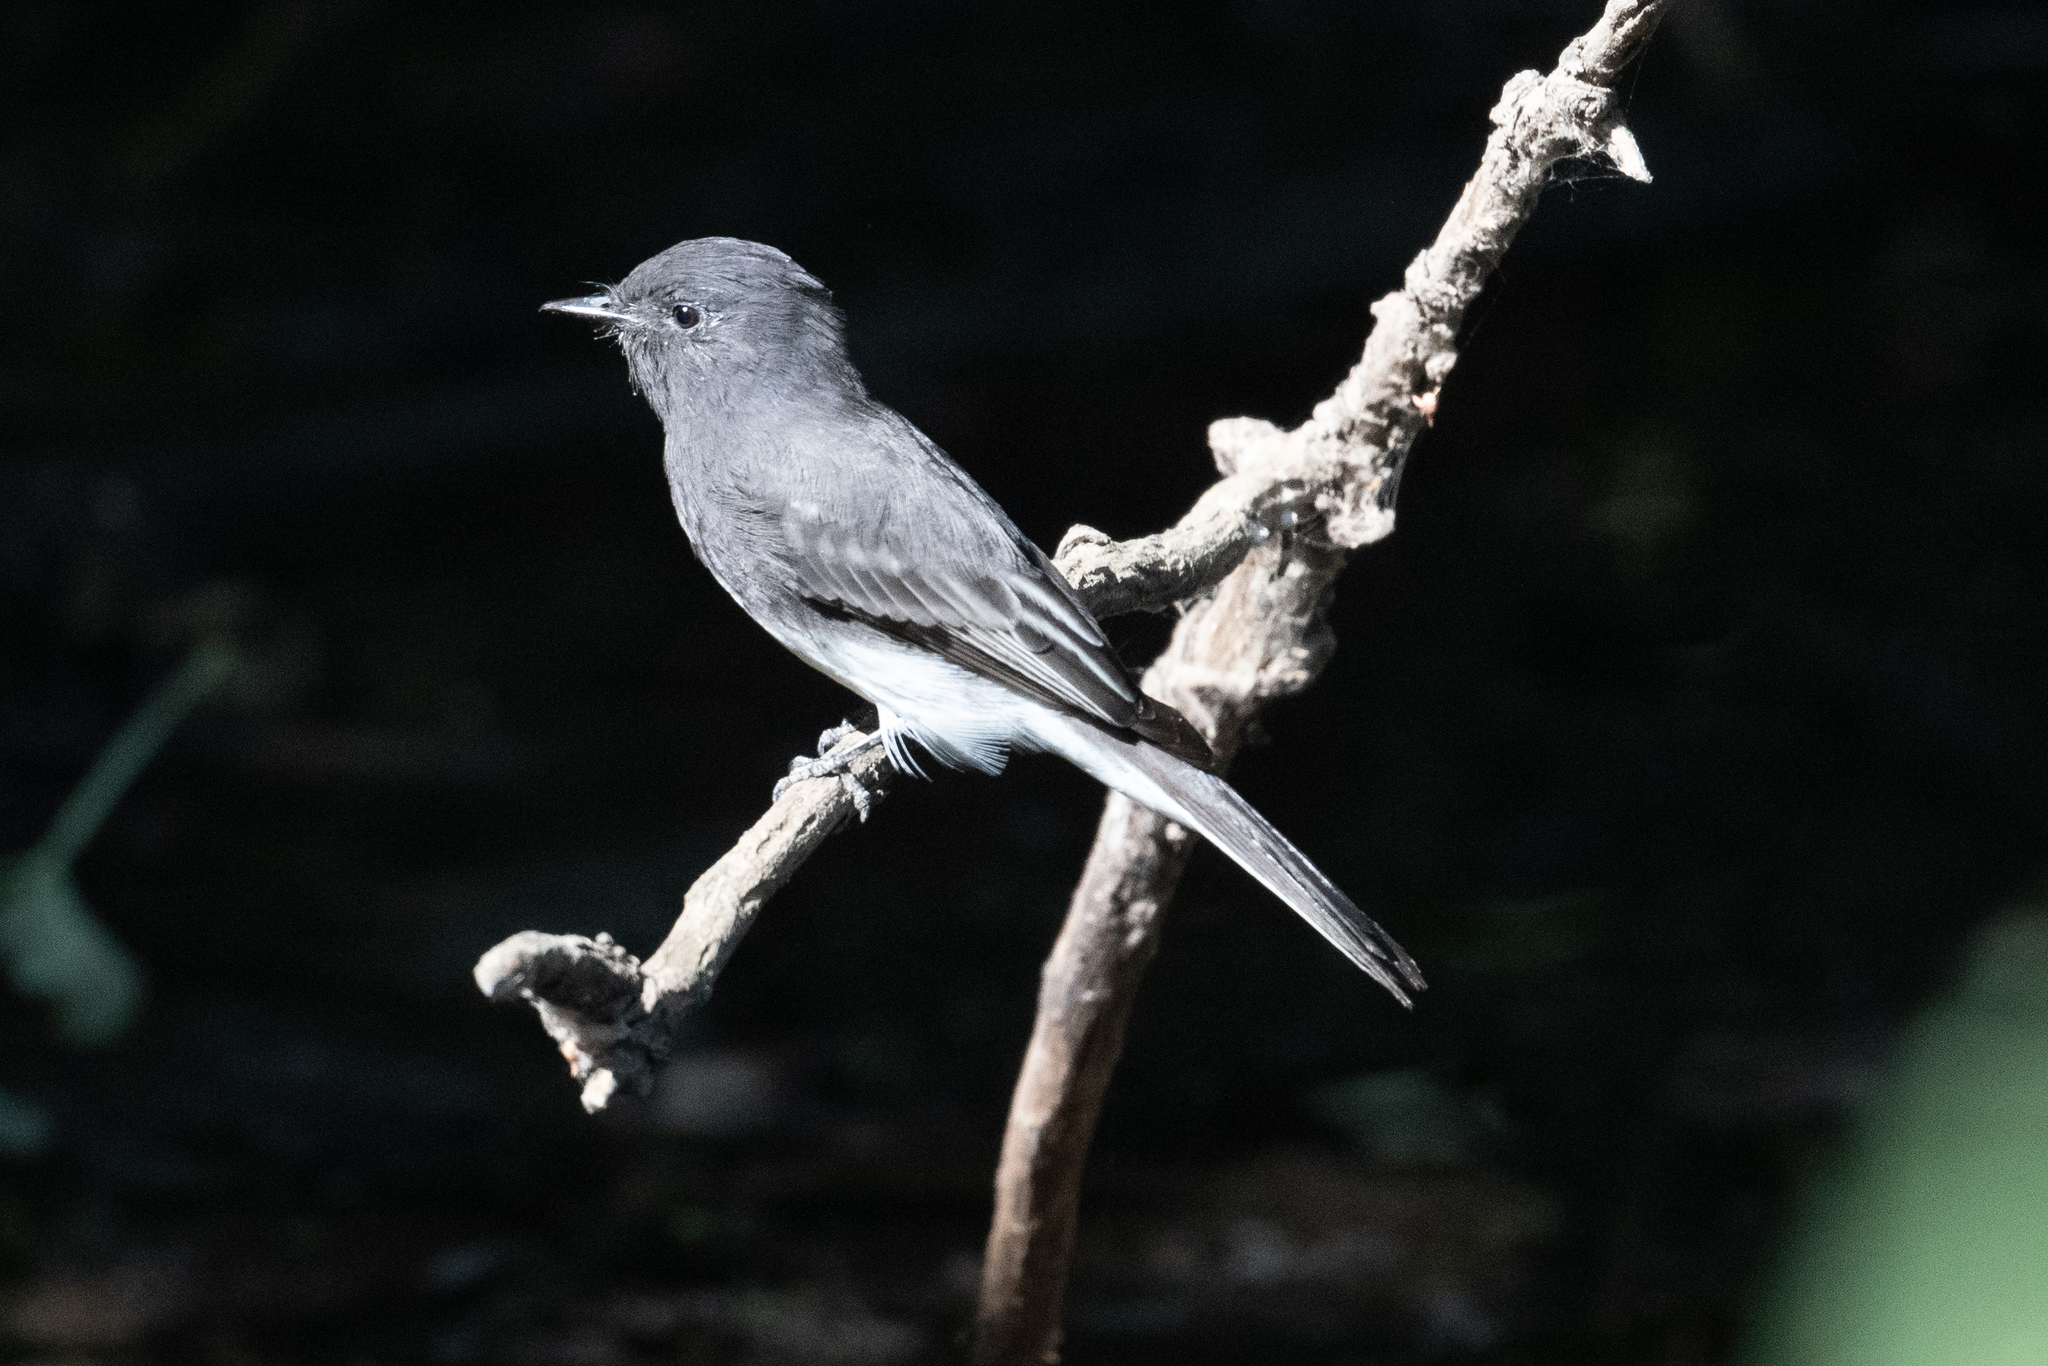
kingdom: Animalia
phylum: Chordata
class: Aves
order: Passeriformes
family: Tyrannidae
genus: Sayornis
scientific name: Sayornis nigricans
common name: Black phoebe
